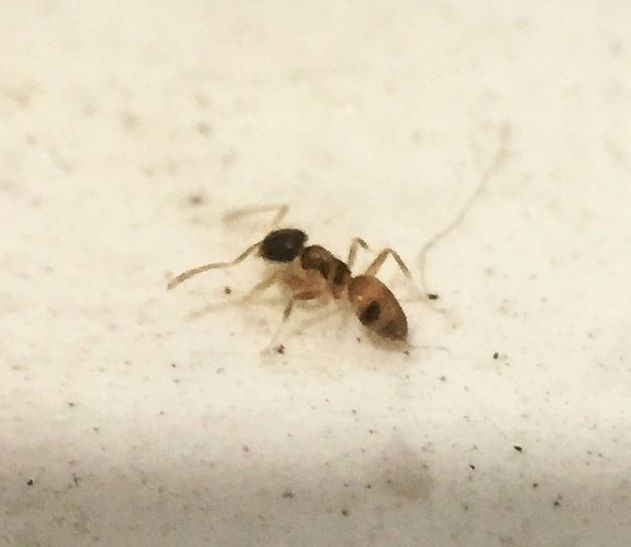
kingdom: Animalia
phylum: Arthropoda
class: Insecta
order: Hymenoptera
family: Formicidae
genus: Tapinoma
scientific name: Tapinoma melanocephalum
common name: Ghost ant
